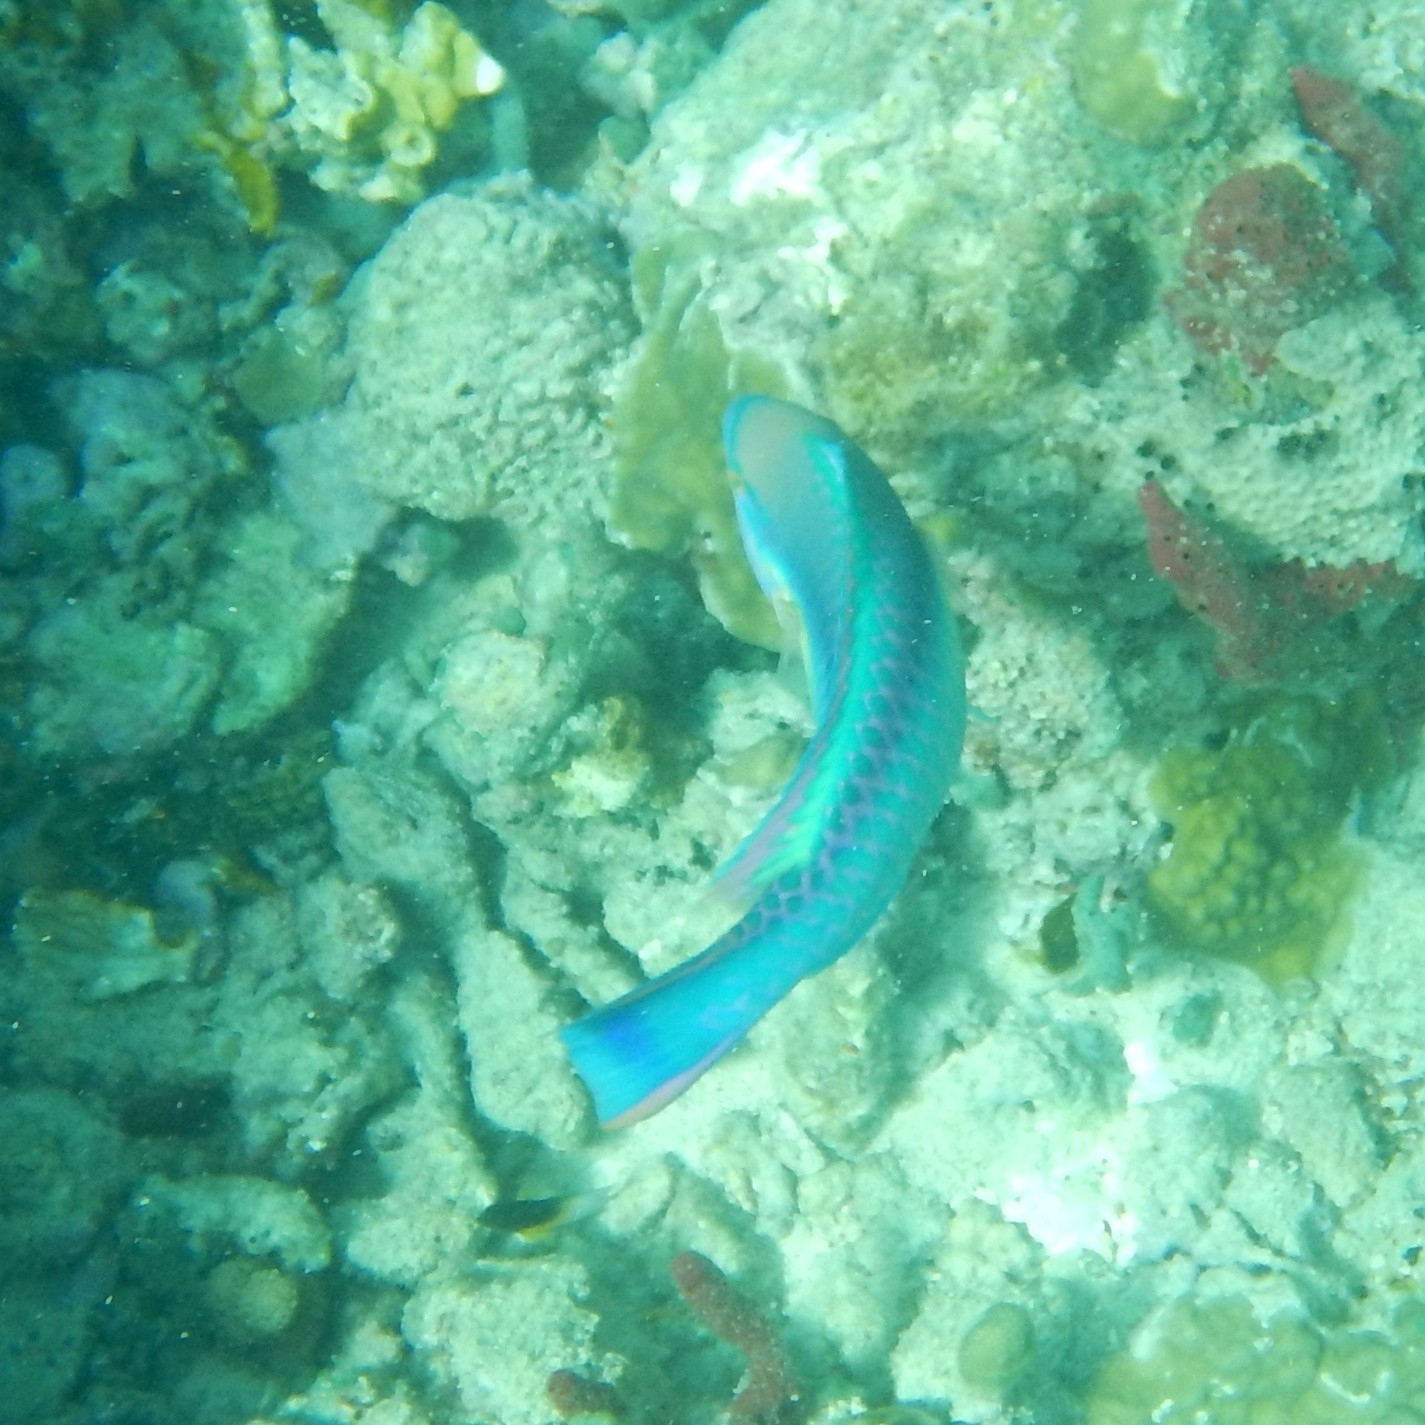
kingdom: Animalia
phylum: Chordata
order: Perciformes
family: Scaridae
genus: Scarus
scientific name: Scarus taeniopterus
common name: Princess parrotfish
